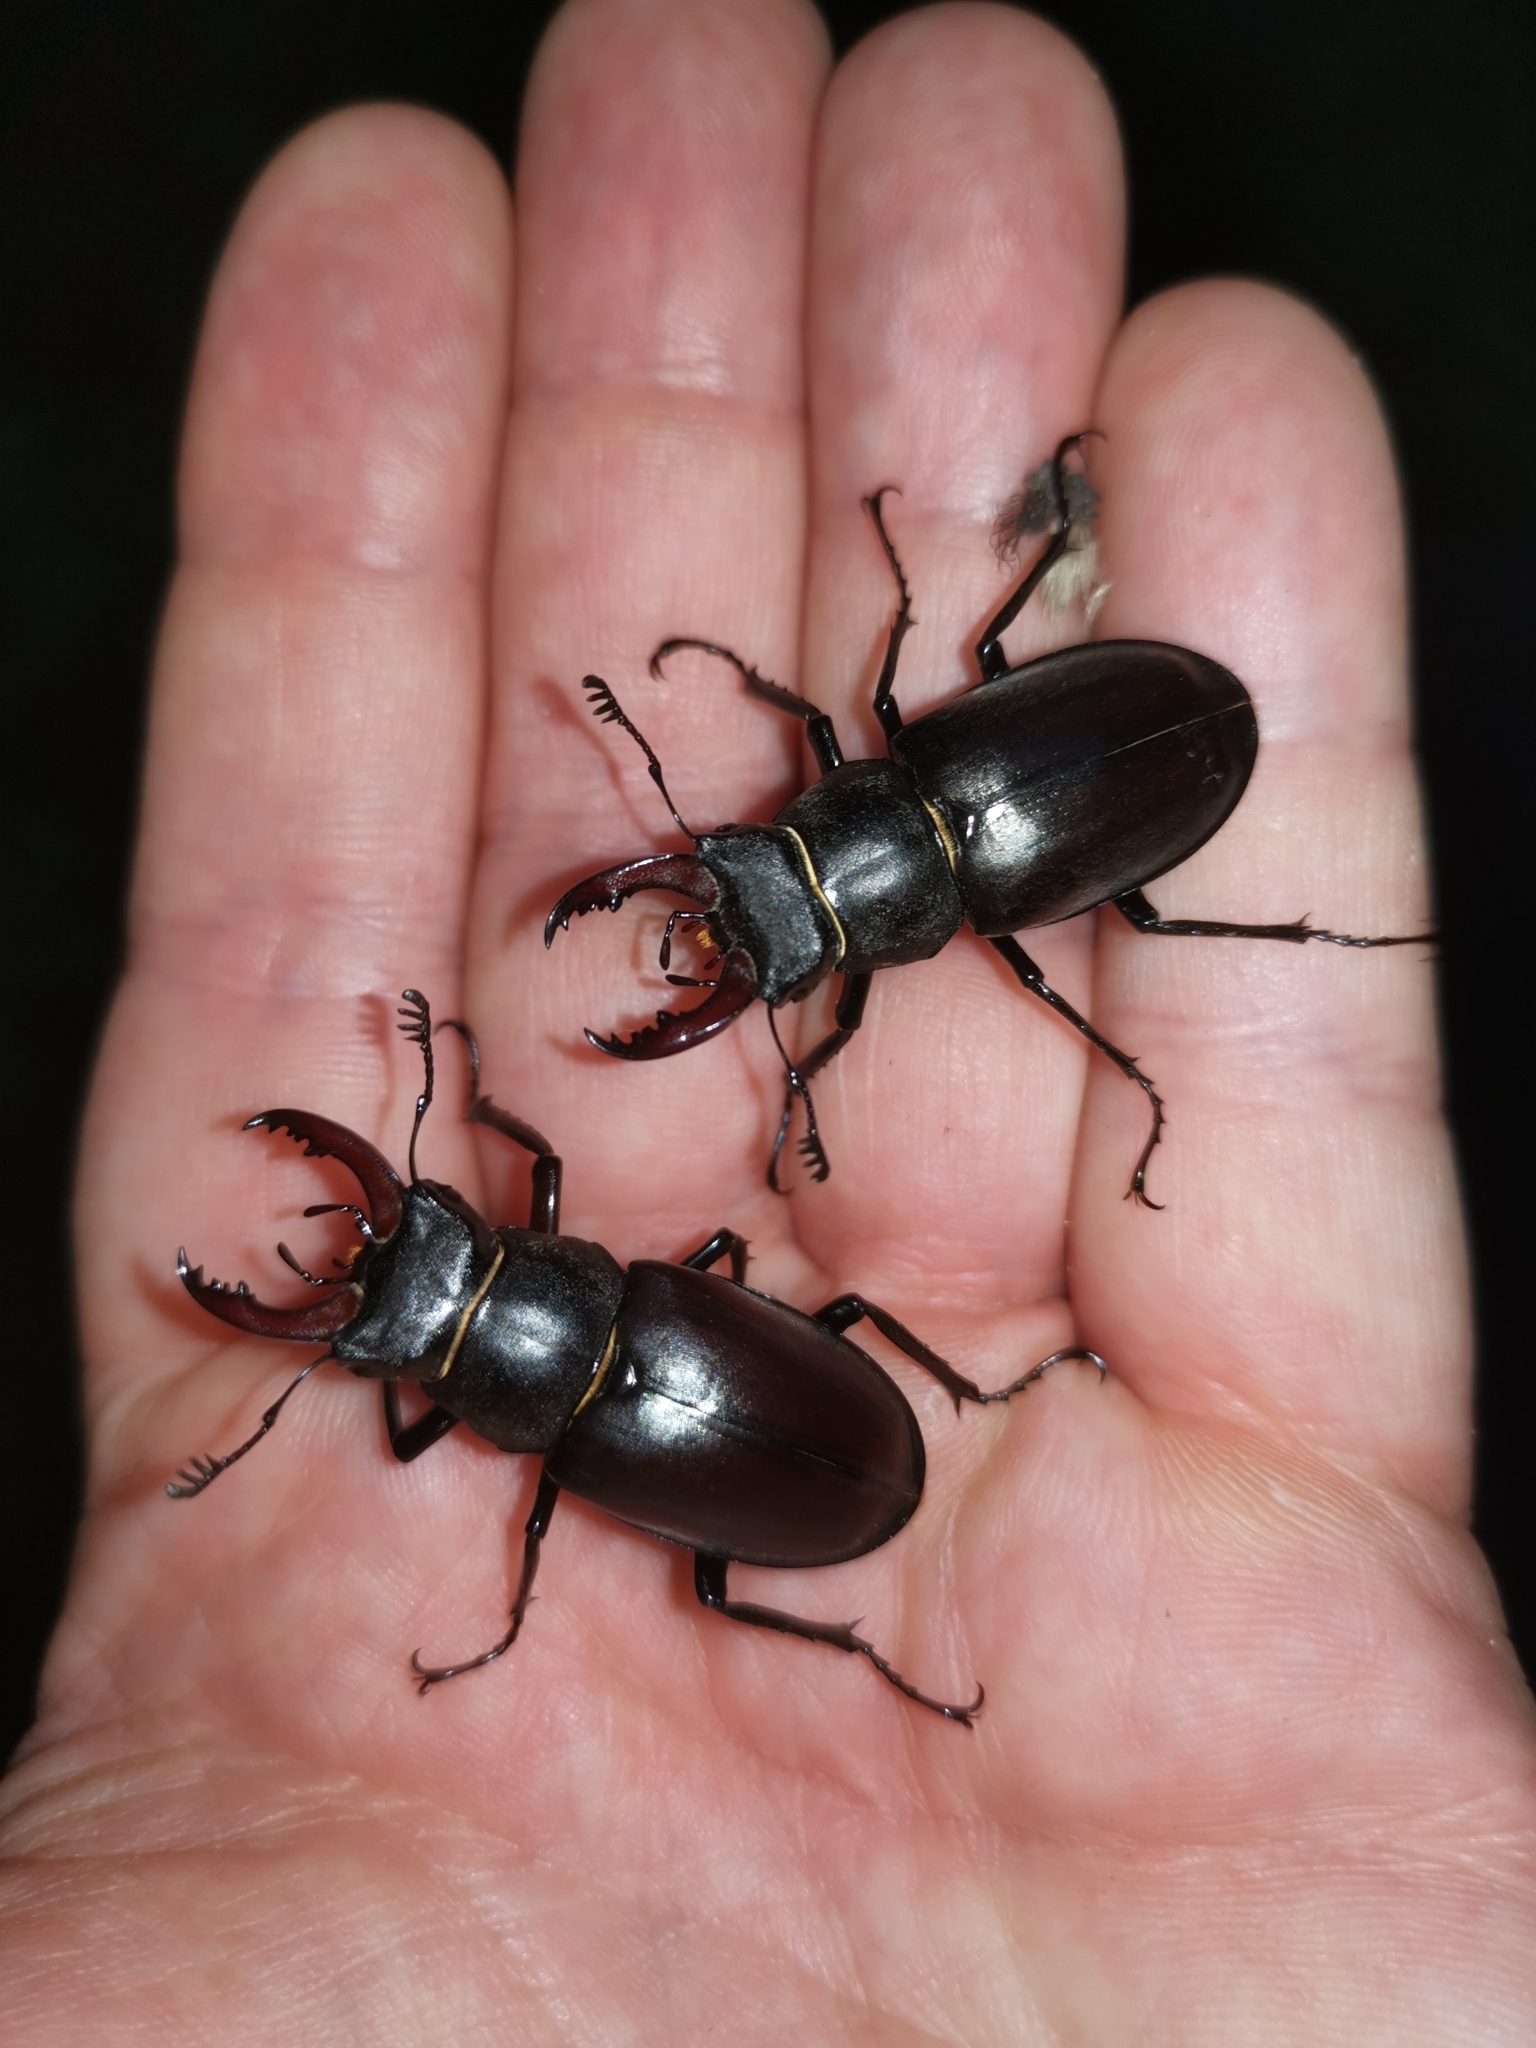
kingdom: Animalia
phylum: Arthropoda
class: Insecta
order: Coleoptera
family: Lucanidae
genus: Lucanus
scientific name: Lucanus cervus
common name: Stag beetle
